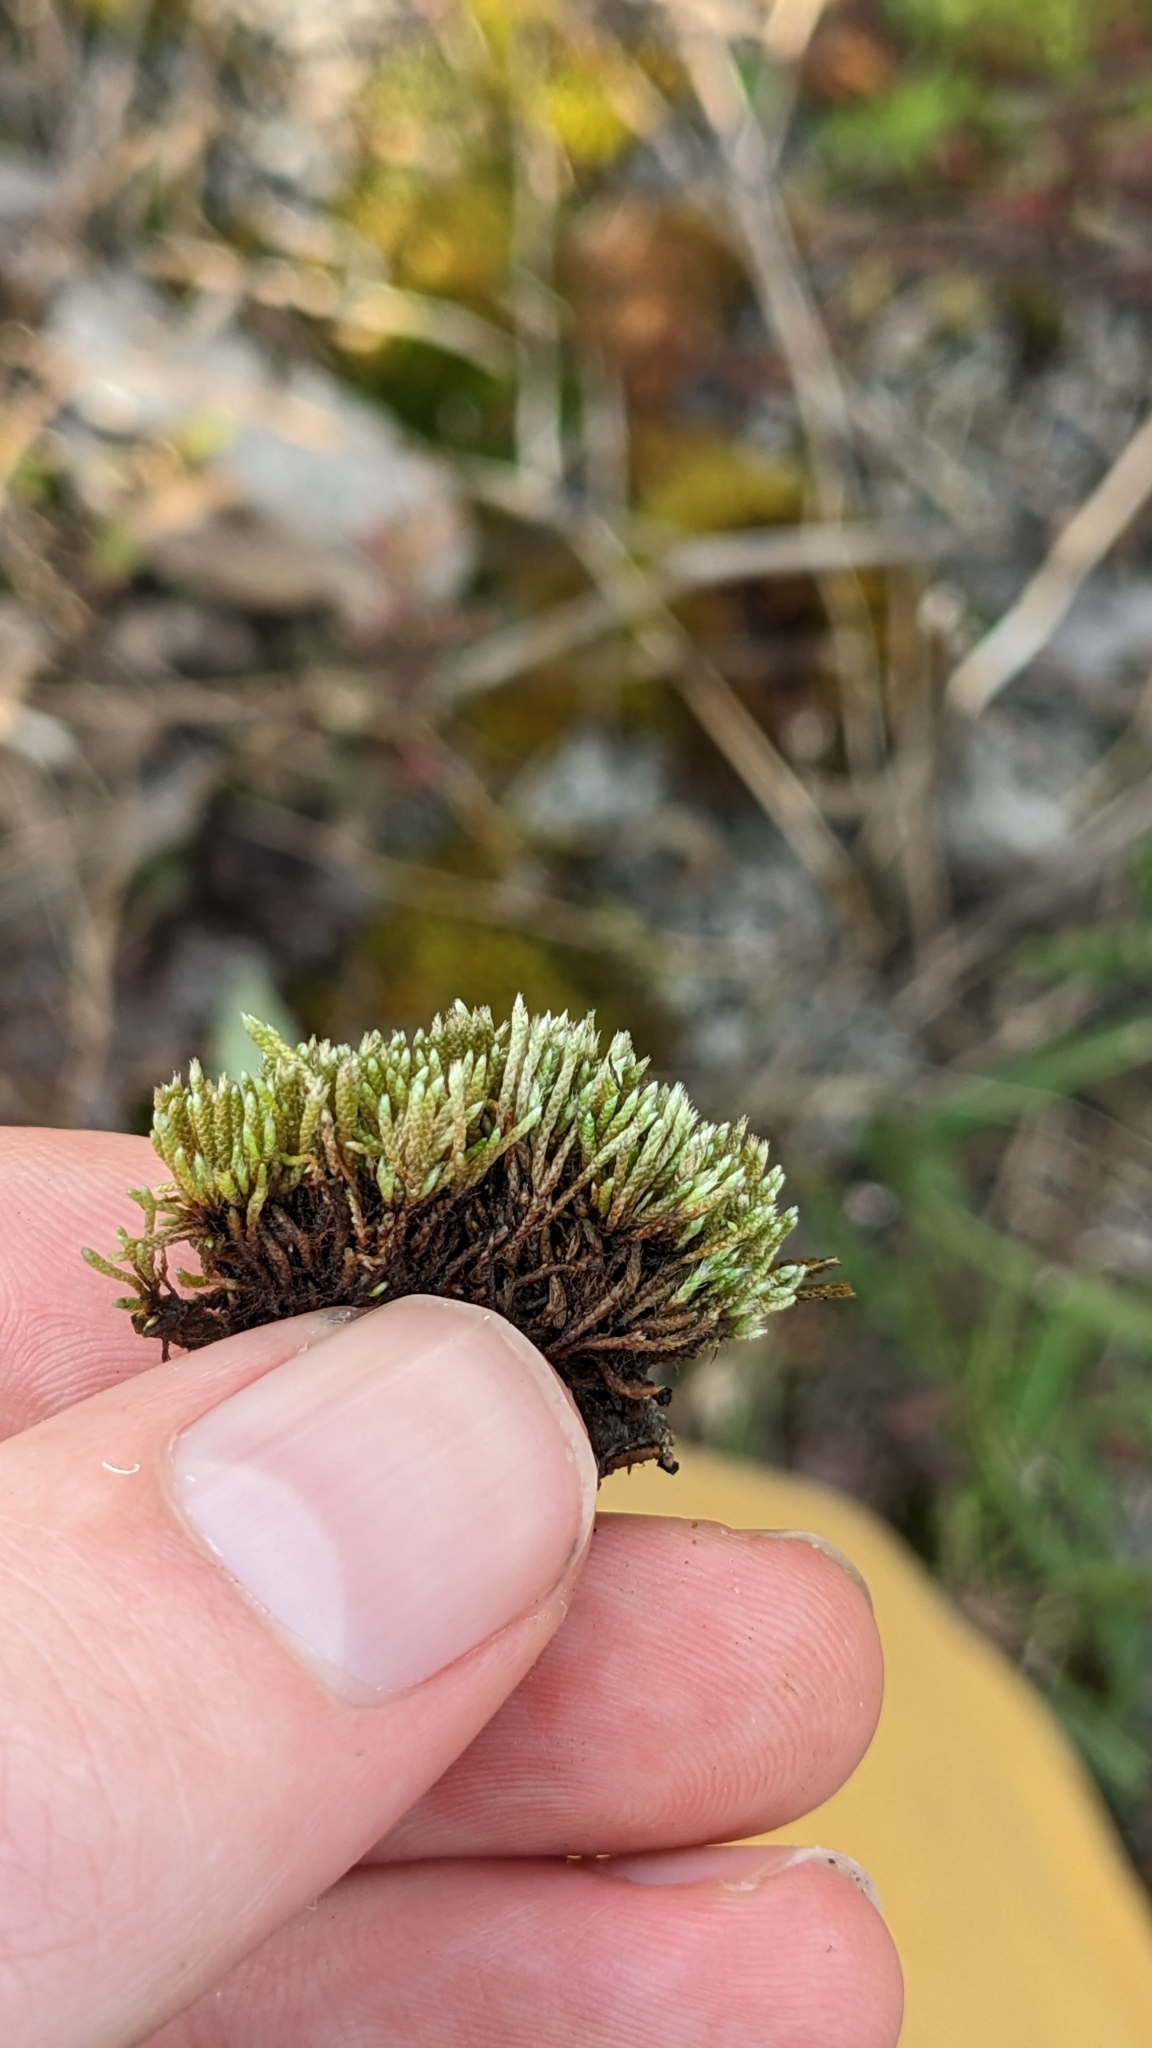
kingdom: Plantae
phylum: Bryophyta
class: Bryopsida
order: Bryales
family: Bryaceae
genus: Bryum
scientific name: Bryum argenteum
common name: Silver-moss
